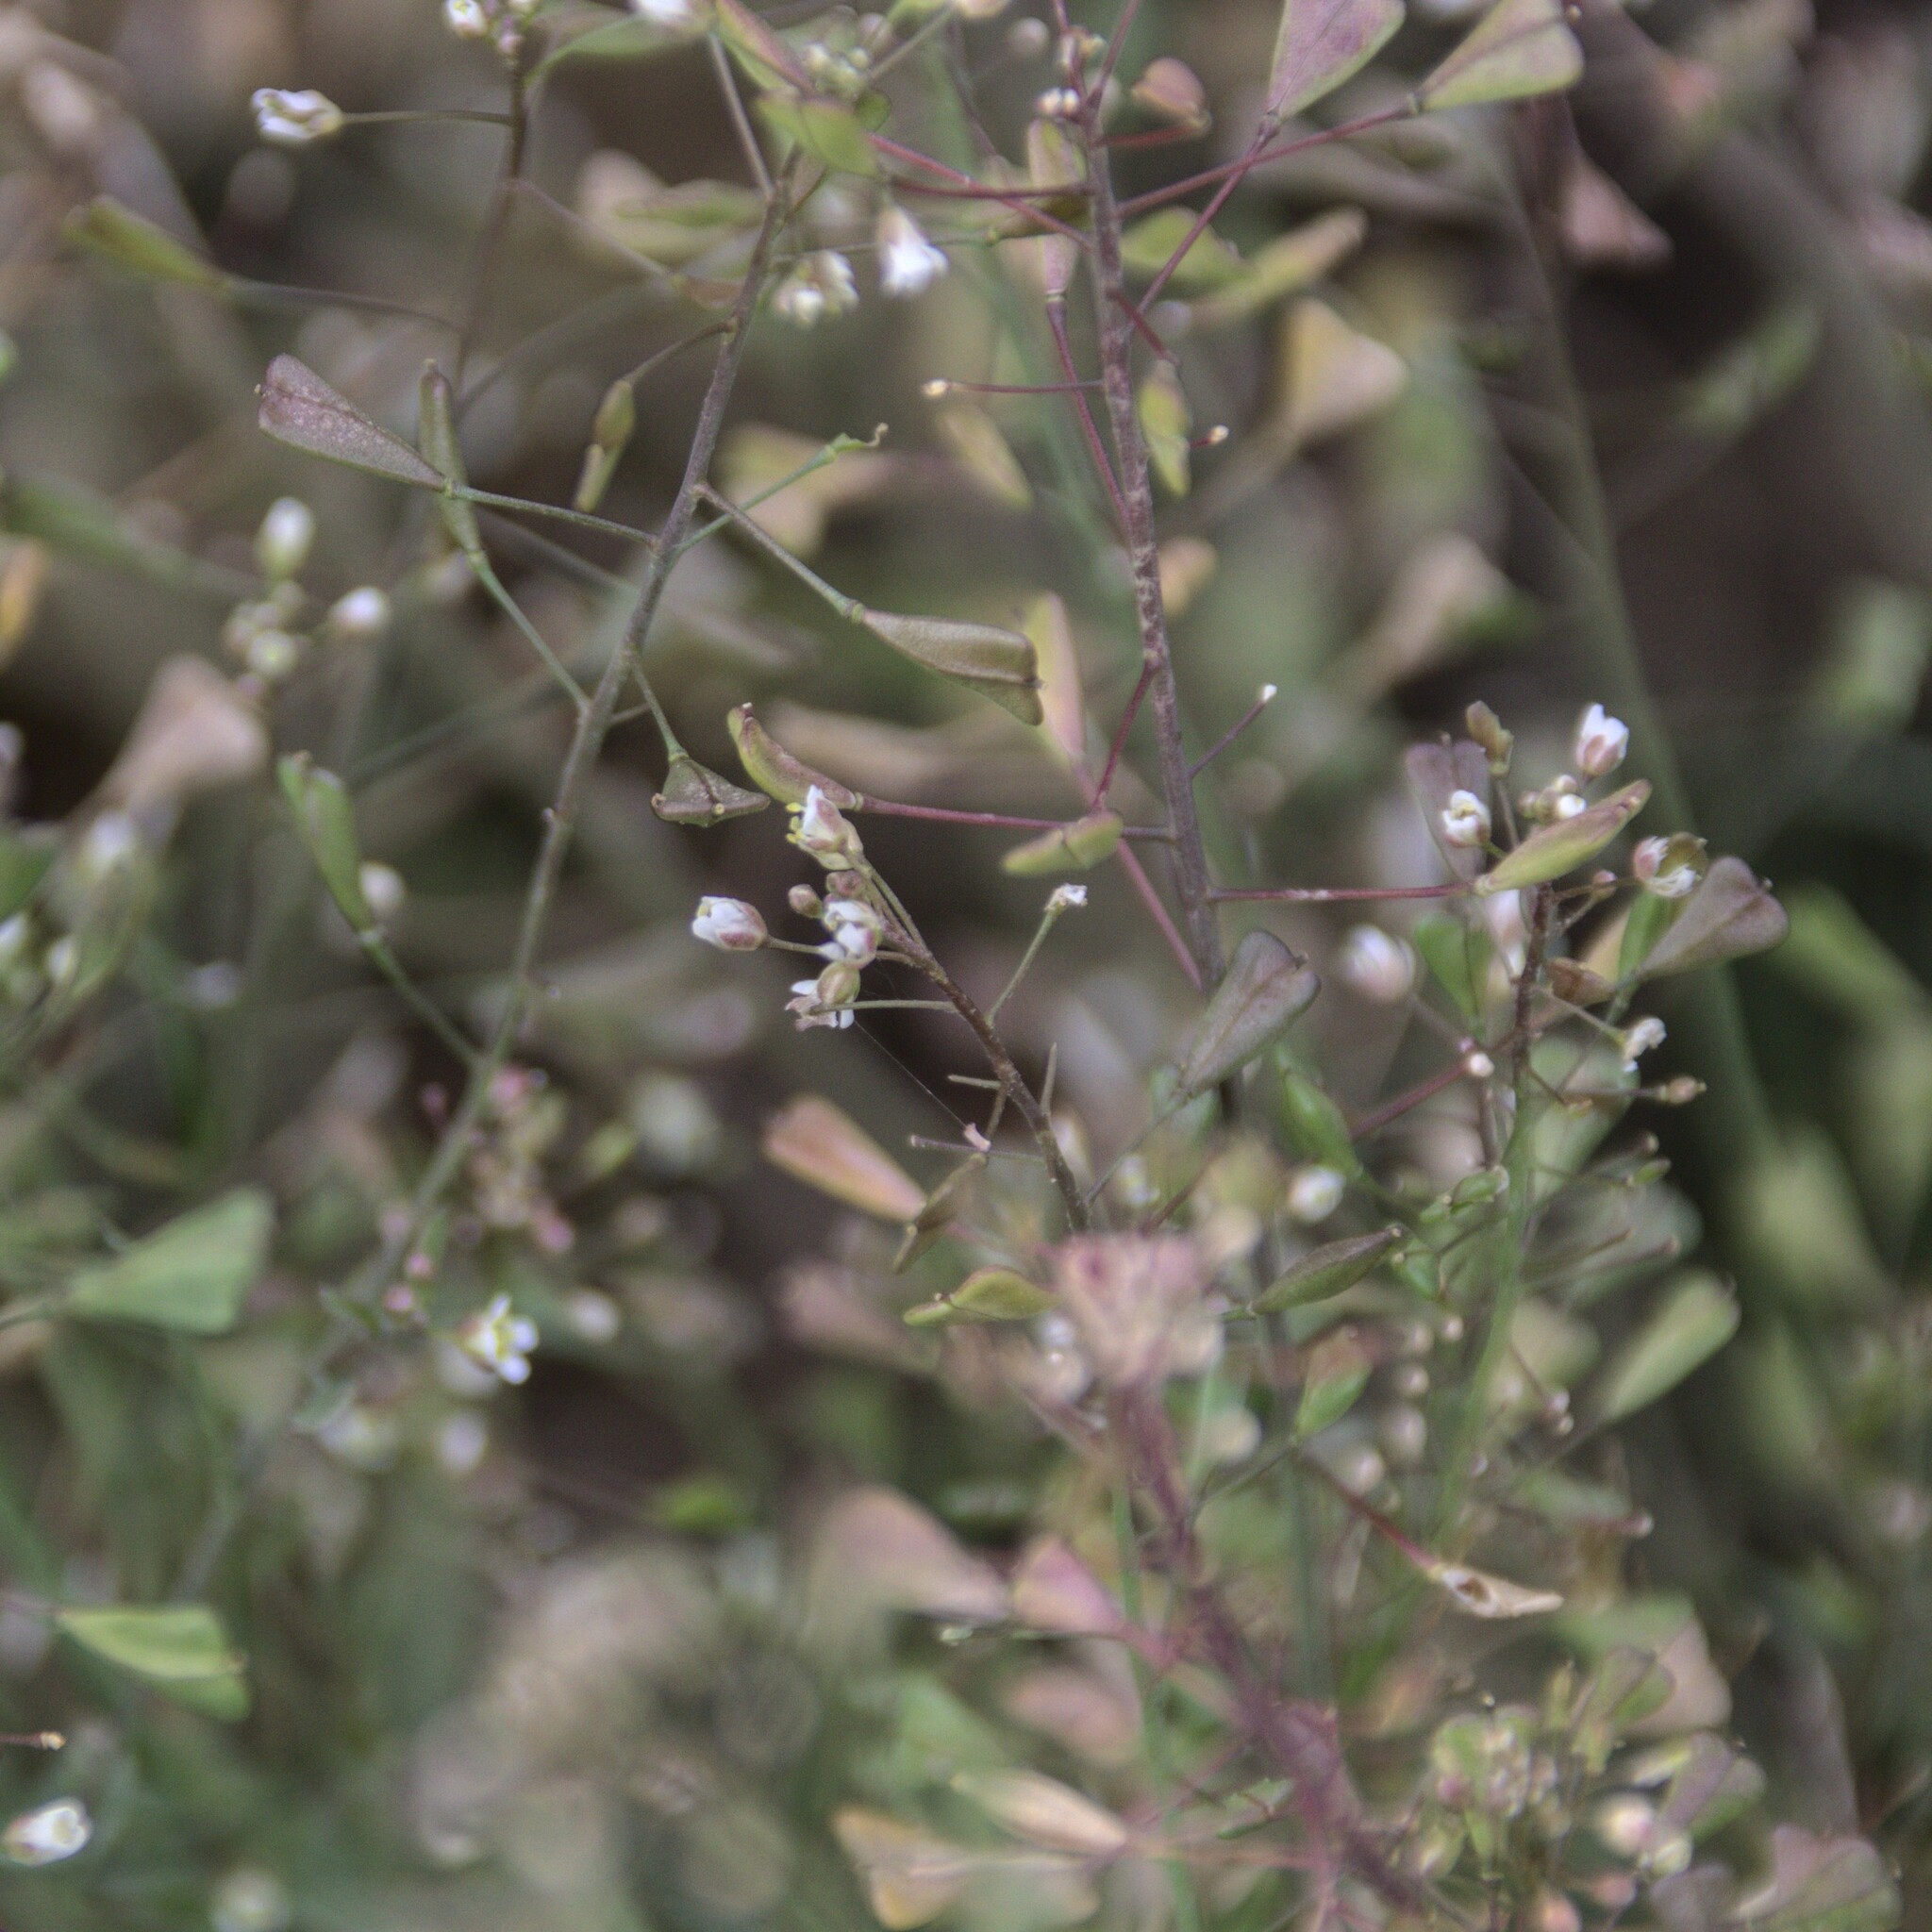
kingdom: Plantae
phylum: Tracheophyta
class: Magnoliopsida
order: Brassicales
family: Brassicaceae
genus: Capsella
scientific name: Capsella bursa-pastoris
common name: Shepherd's purse
